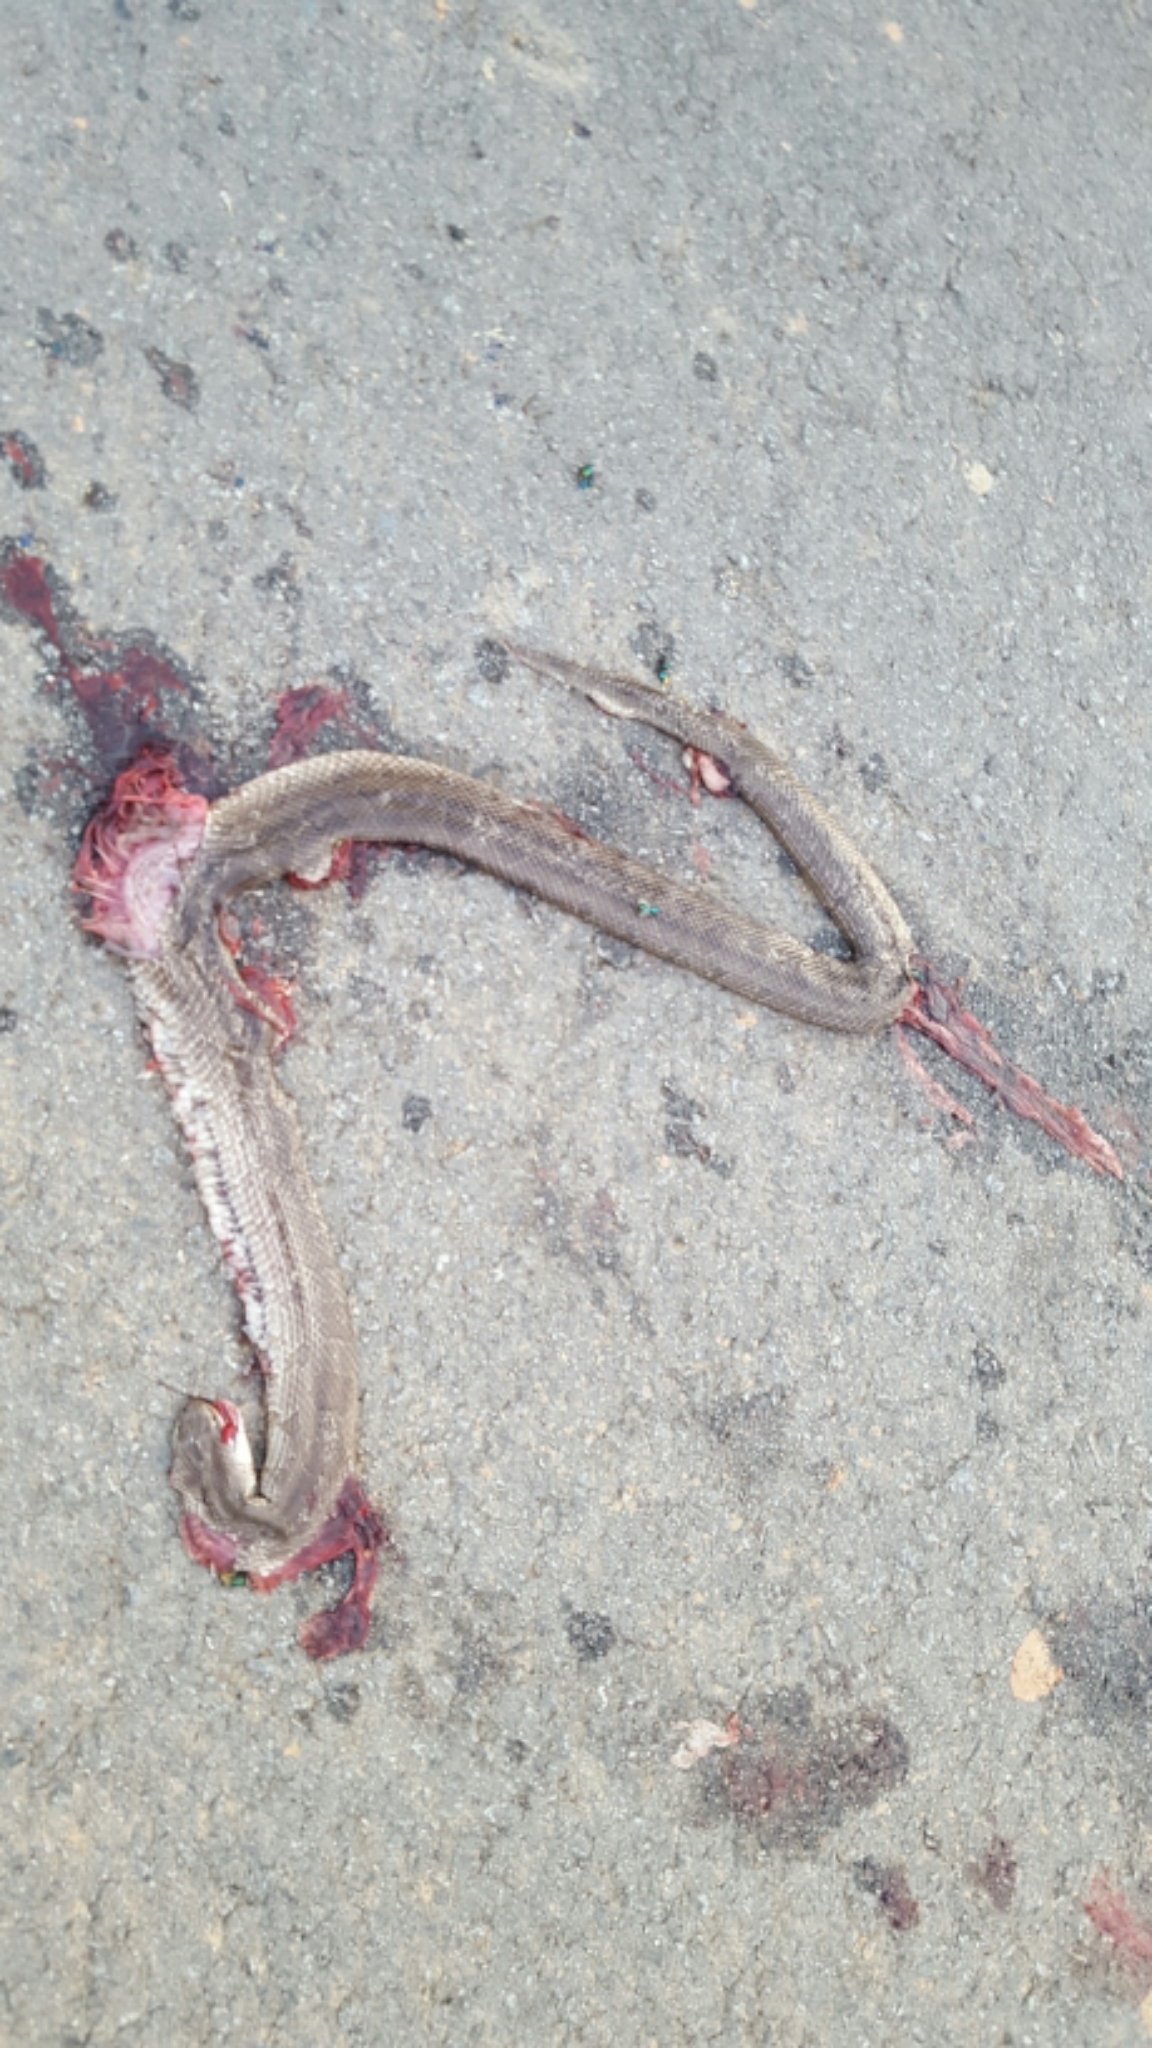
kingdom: Animalia
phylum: Chordata
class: Squamata
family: Colubridae
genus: Lampropeltis
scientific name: Lampropeltis calligaster
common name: Prairie kingsnake
